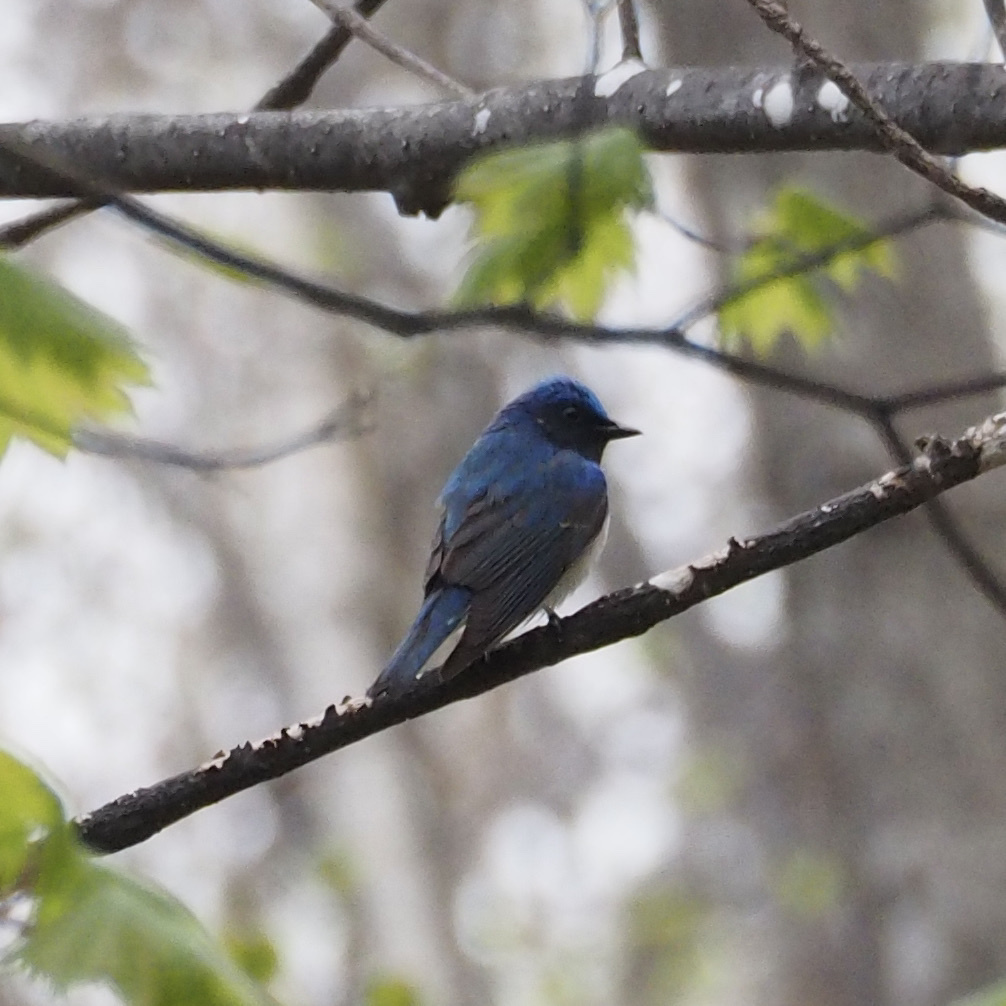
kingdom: Animalia
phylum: Chordata
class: Aves
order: Passeriformes
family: Muscicapidae
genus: Cyanoptila
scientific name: Cyanoptila cyanomelana
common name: Blue-and-white flycatcher
